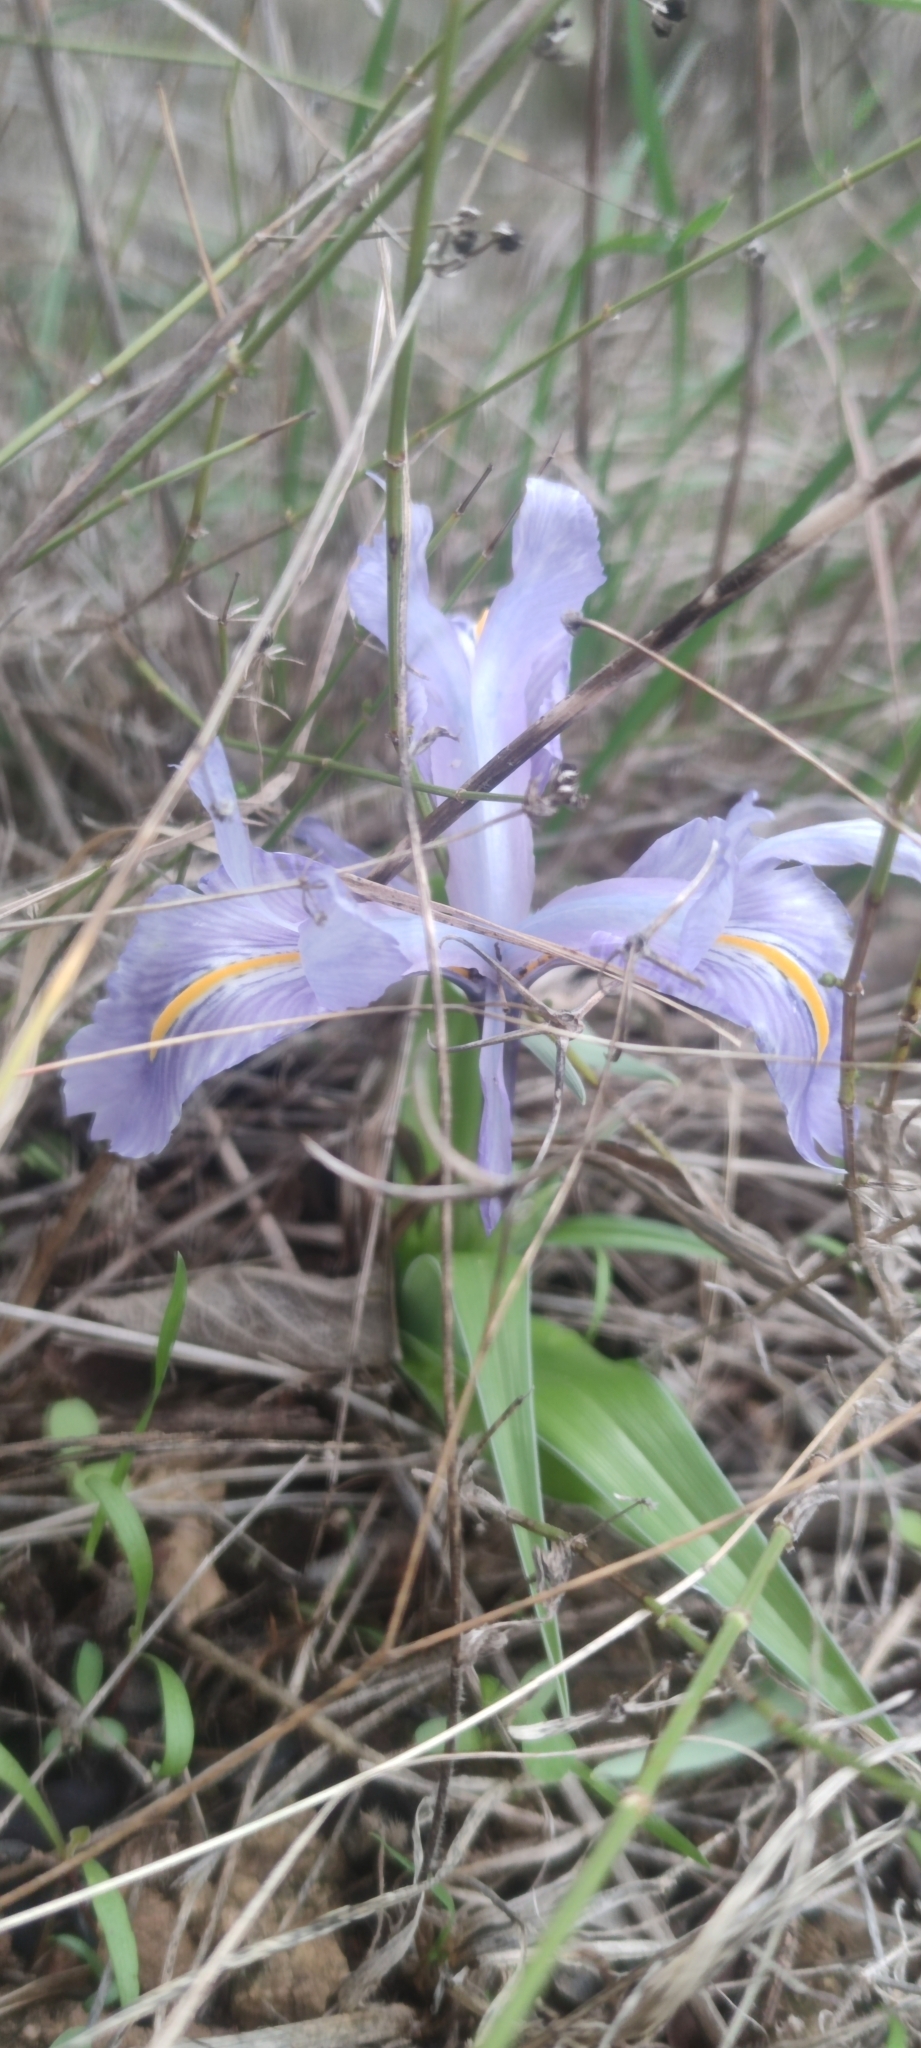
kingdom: Plantae
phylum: Tracheophyta
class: Liliopsida
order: Asparagales
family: Iridaceae
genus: Iris
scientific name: Iris planifolia
